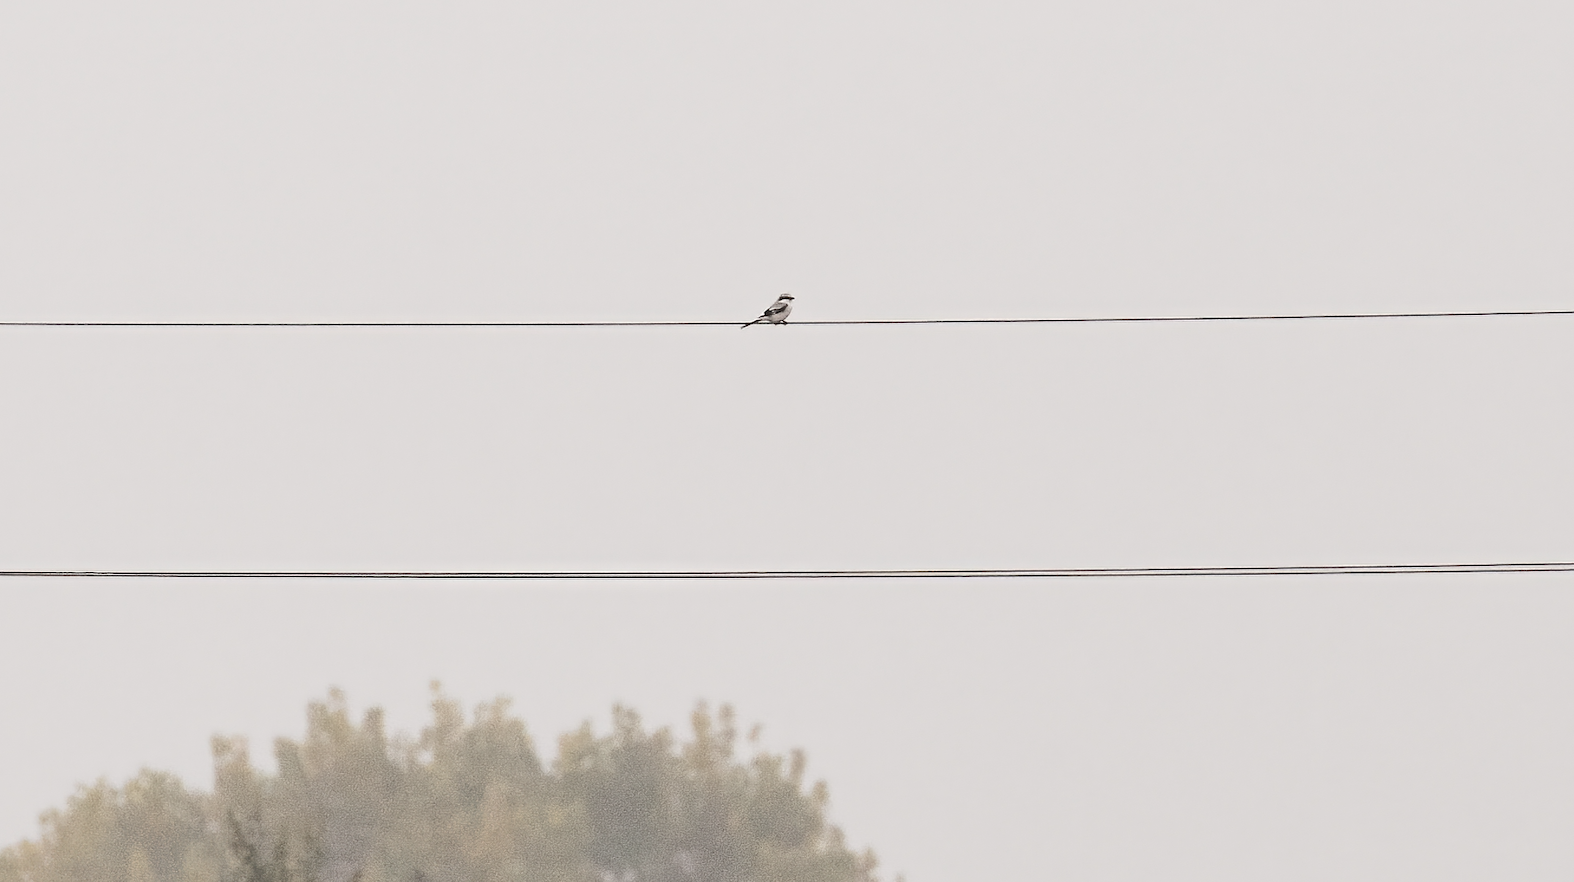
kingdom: Animalia
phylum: Chordata
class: Aves
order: Passeriformes
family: Laniidae
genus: Lanius
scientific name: Lanius excubitor
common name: Great grey shrike
